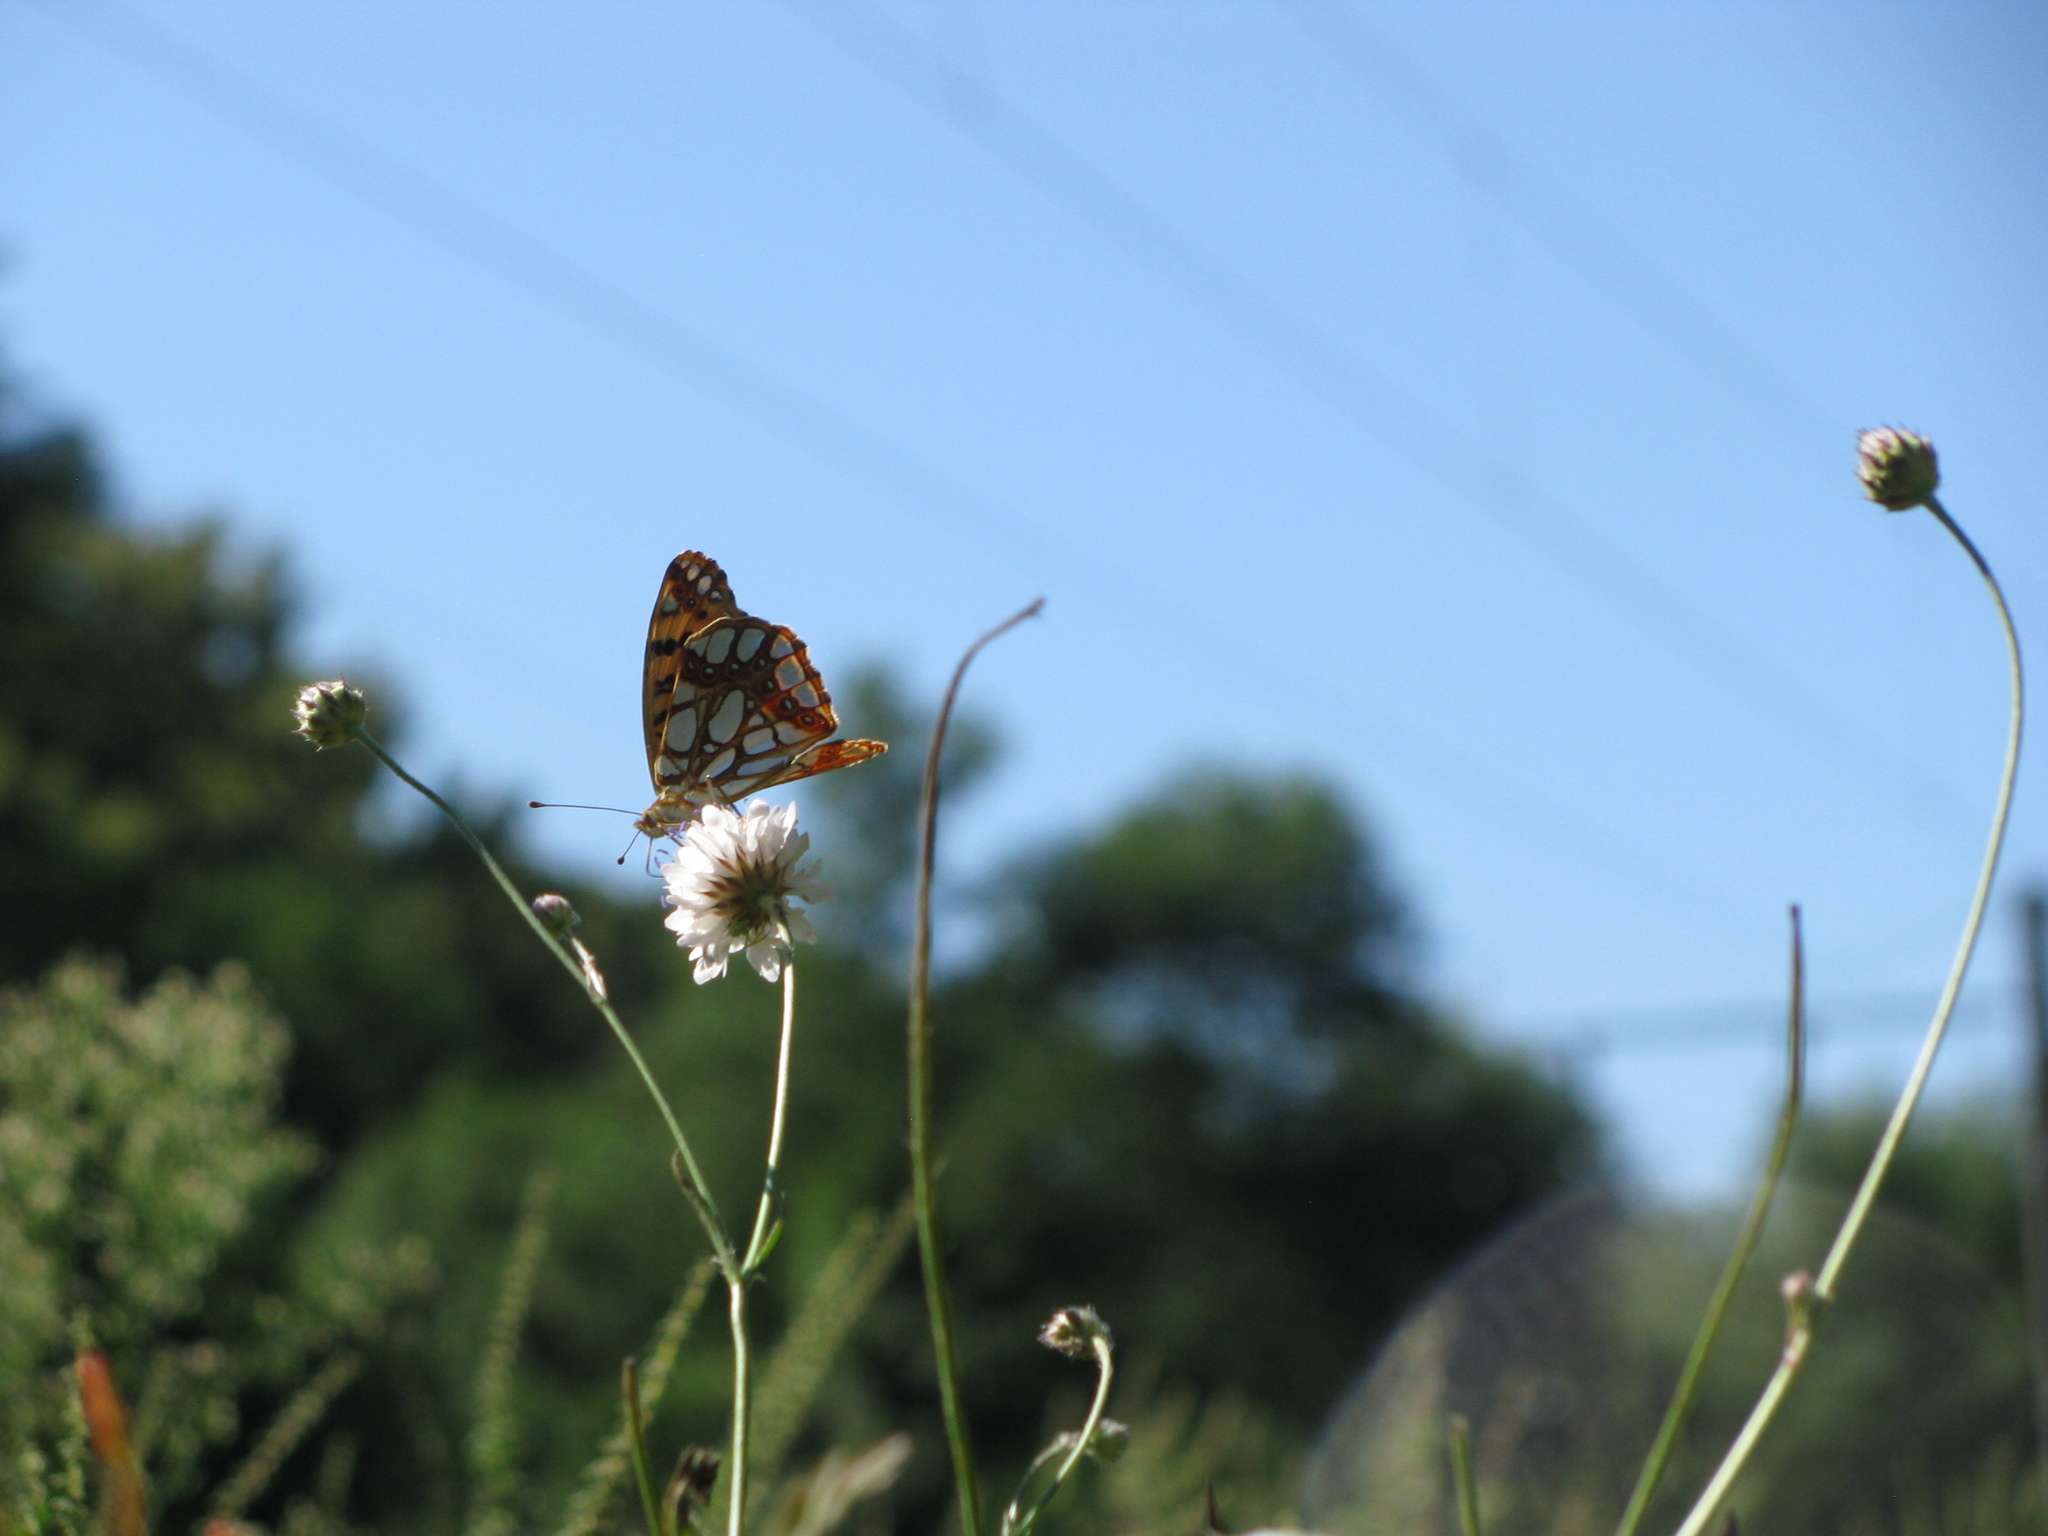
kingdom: Animalia
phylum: Arthropoda
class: Insecta
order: Lepidoptera
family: Nymphalidae
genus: Issoria
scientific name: Issoria lathonia
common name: Queen of spain fritillary
